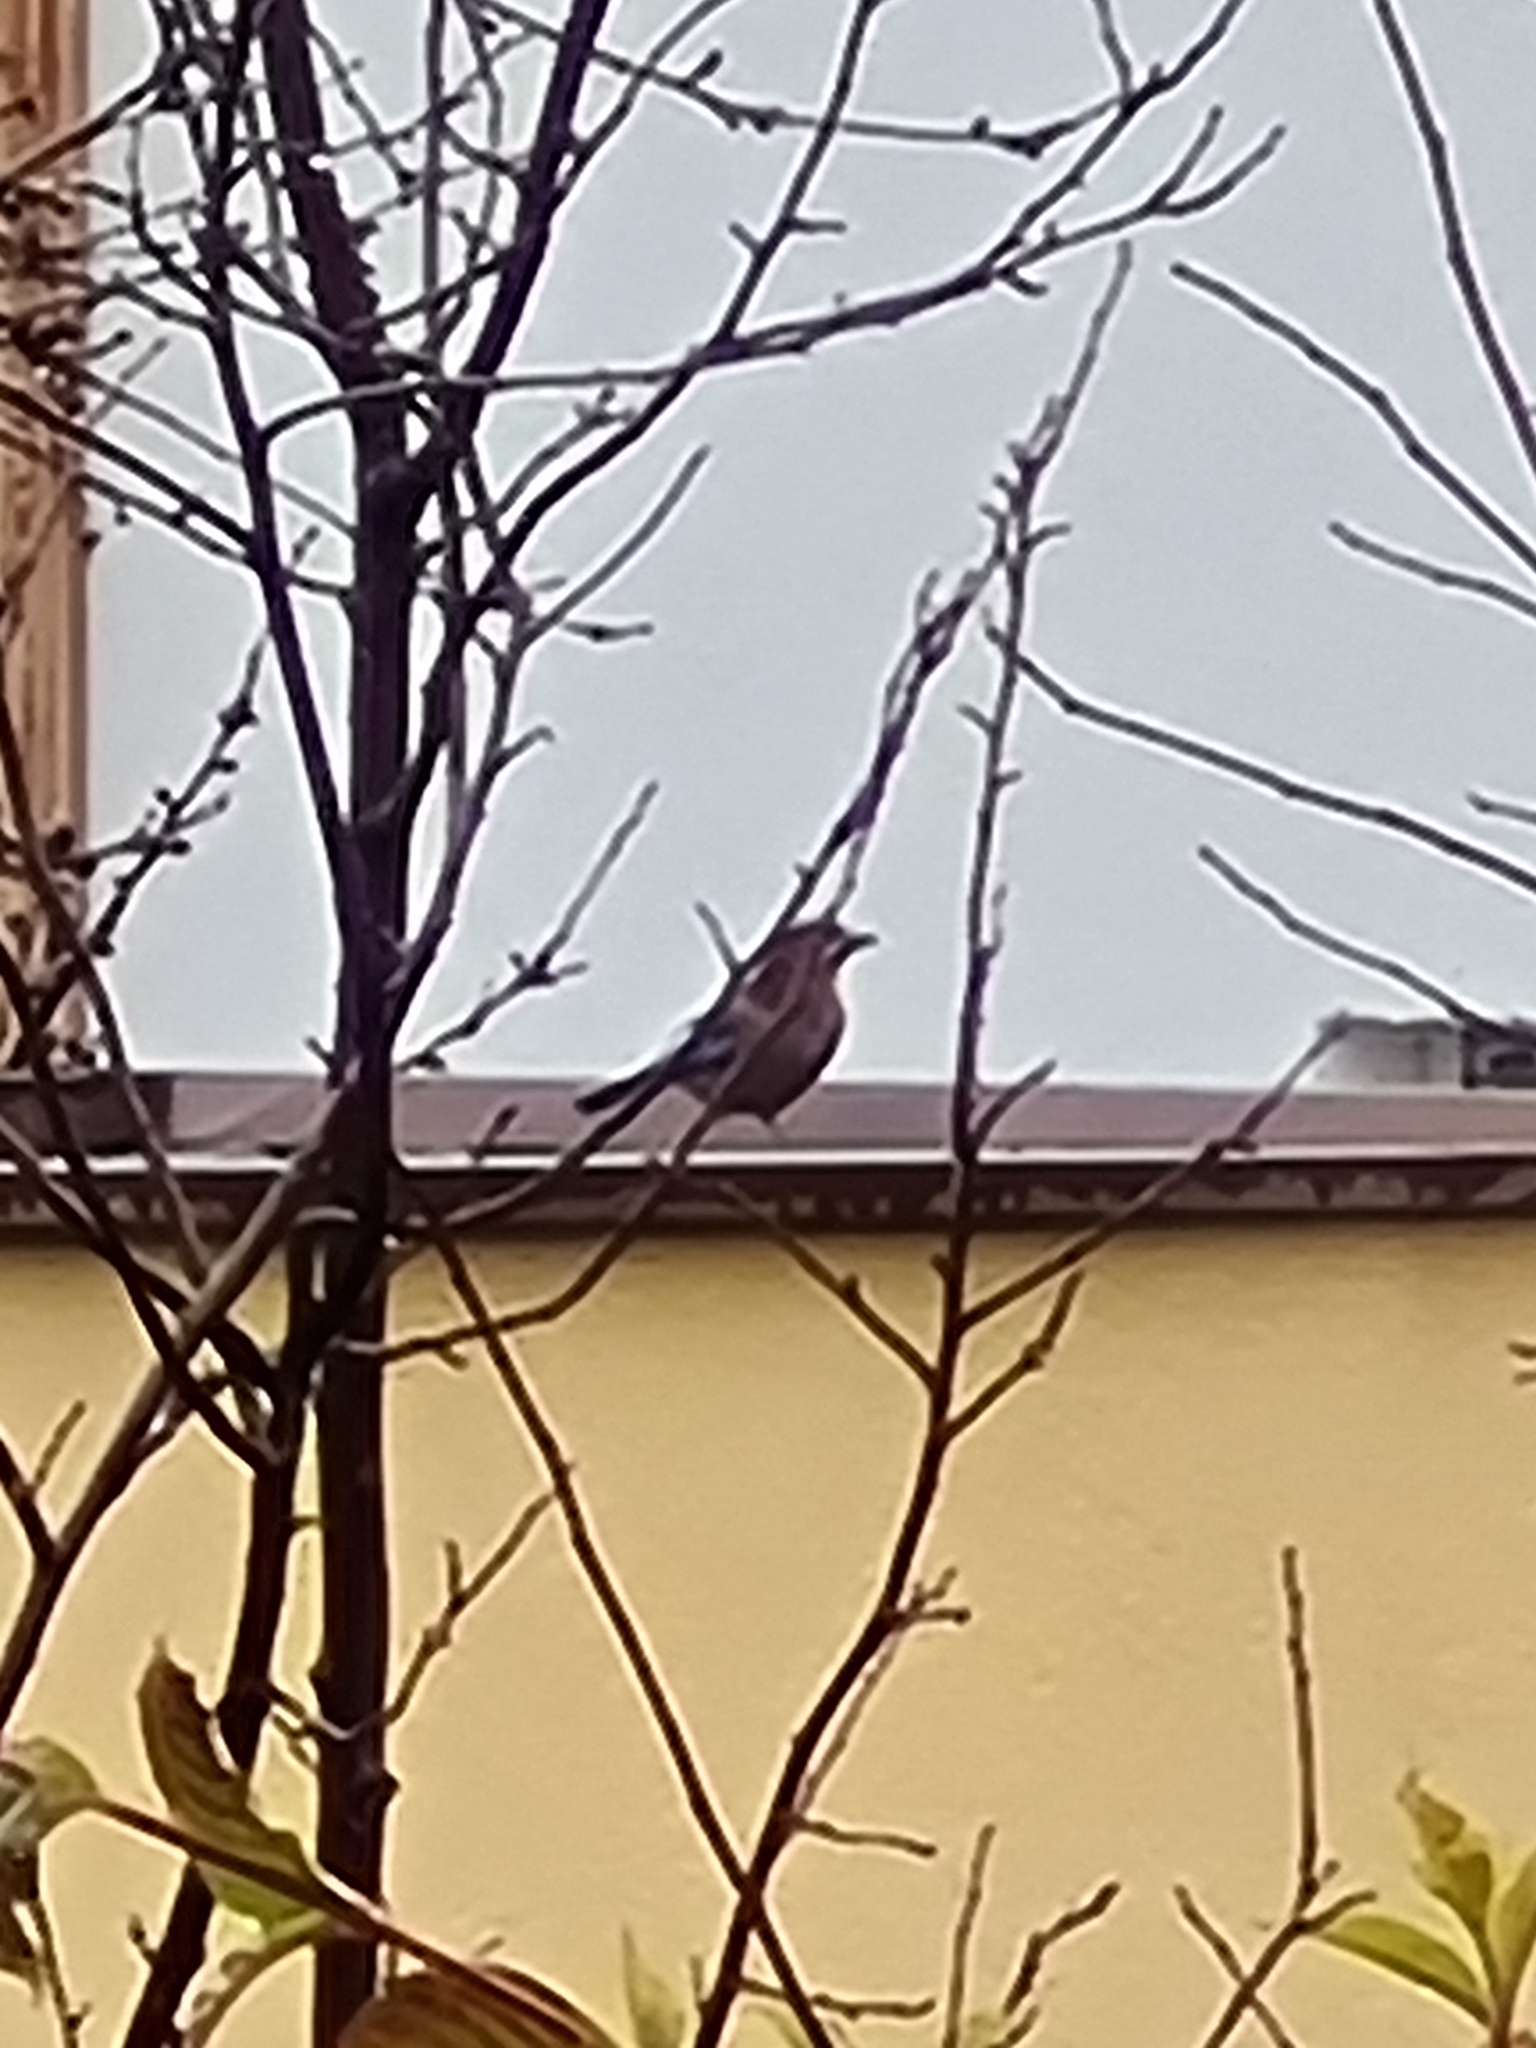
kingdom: Animalia
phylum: Chordata
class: Aves
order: Passeriformes
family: Corvidae
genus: Garrulus
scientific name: Garrulus glandarius
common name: Eurasian jay
